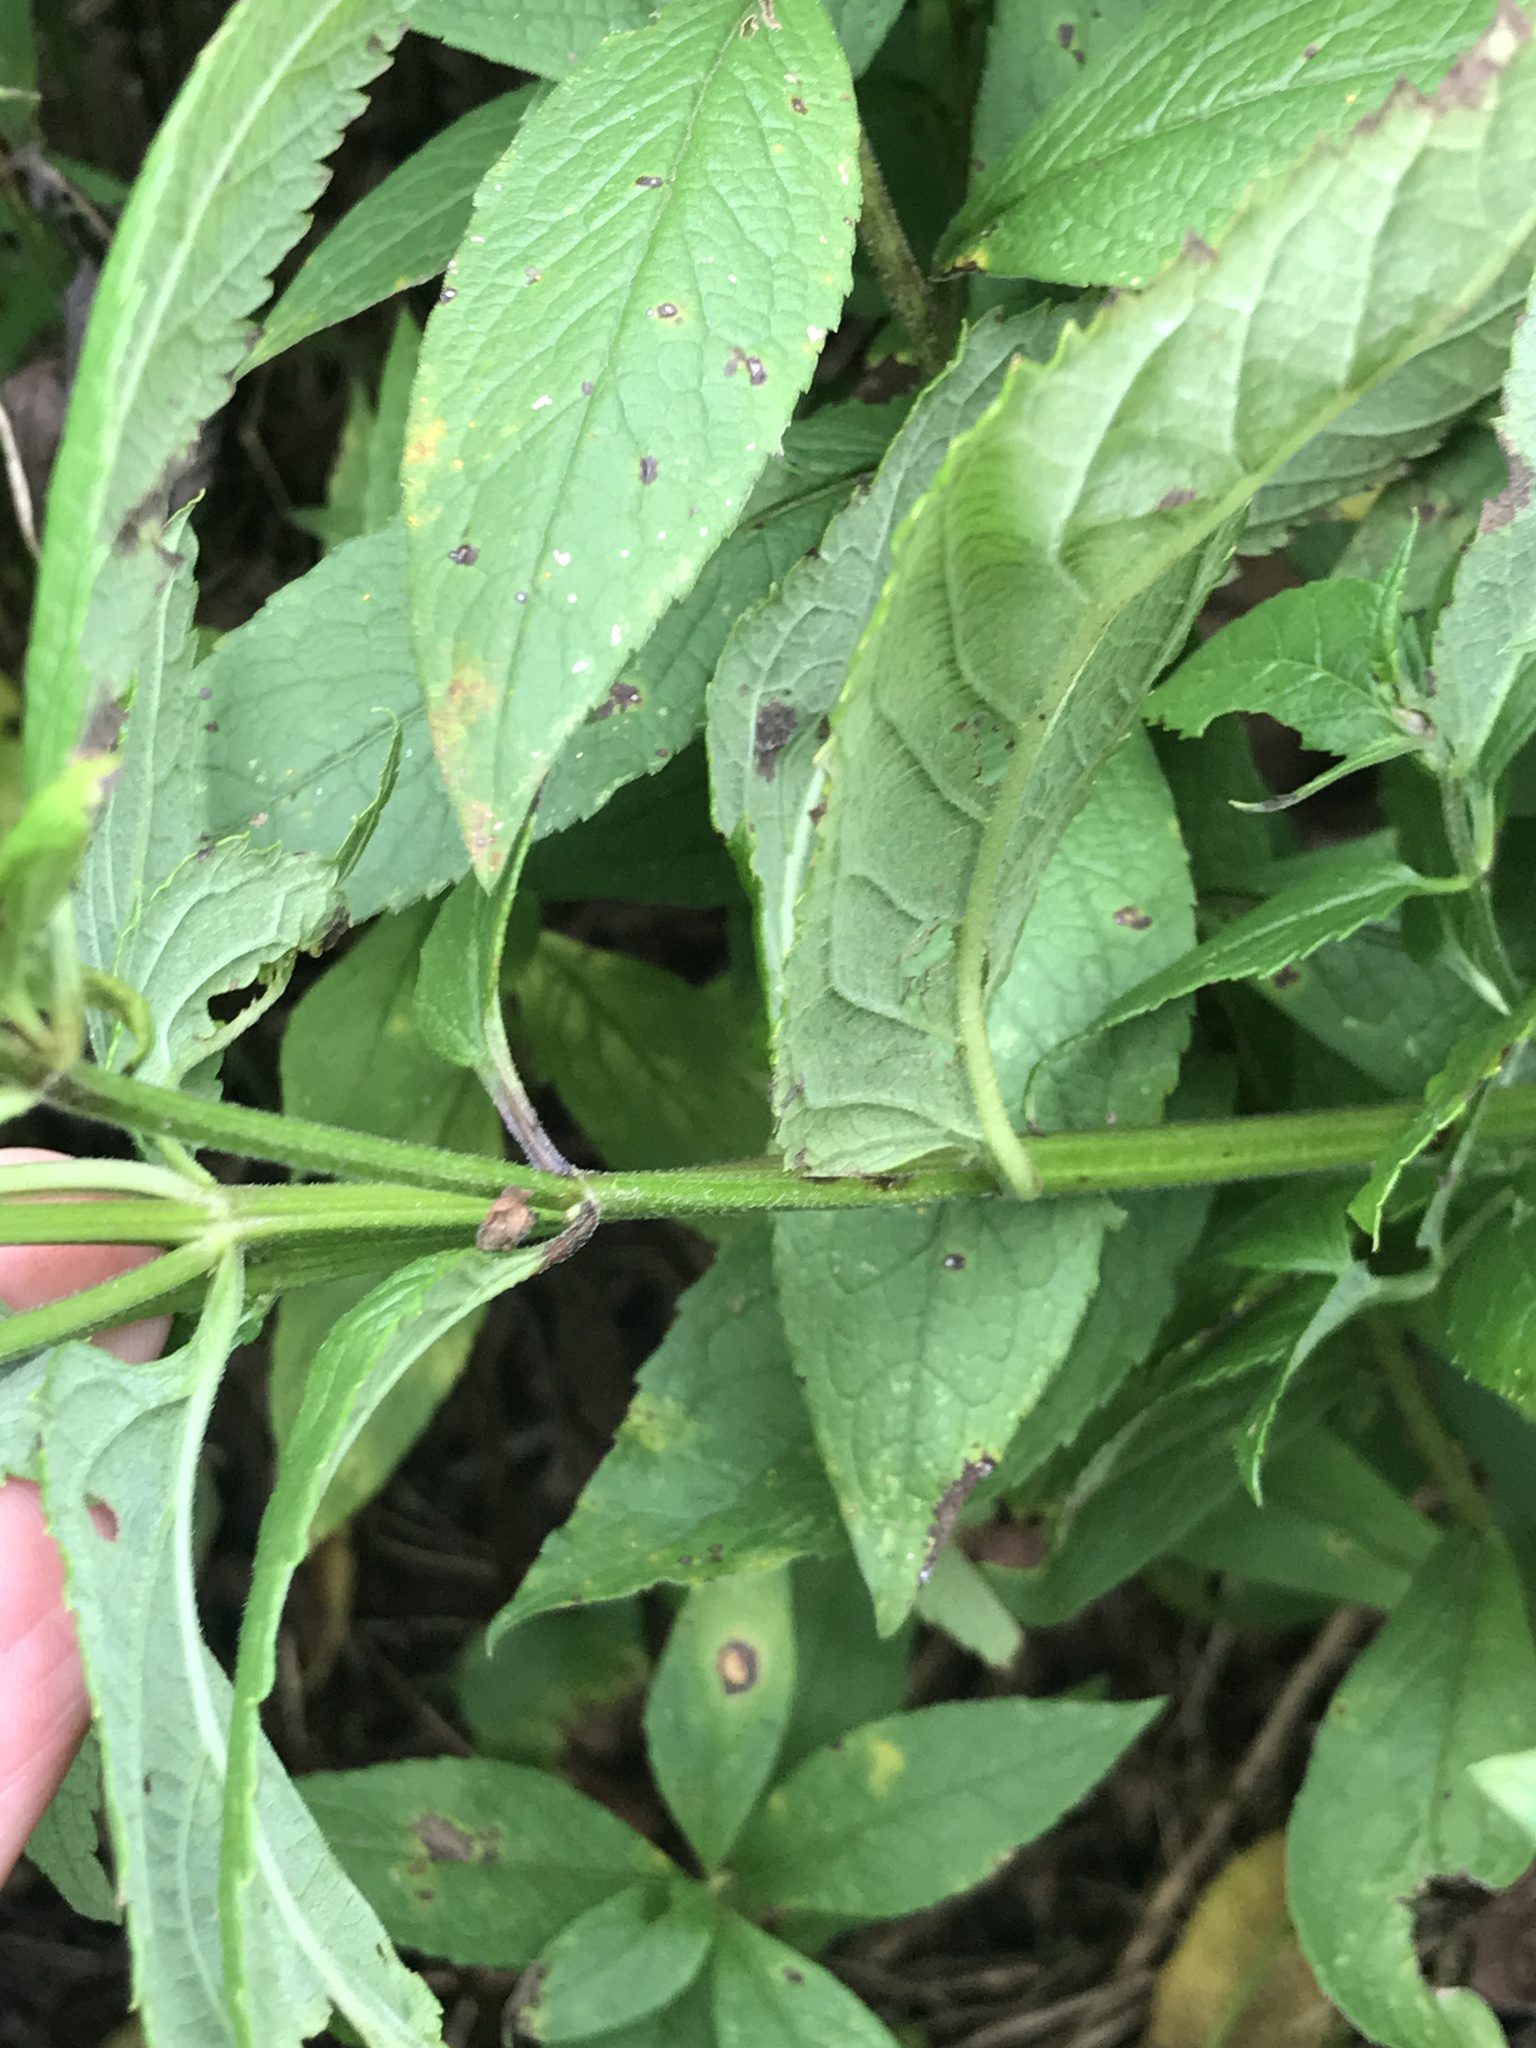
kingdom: Plantae
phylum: Tracheophyta
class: Magnoliopsida
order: Lamiales
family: Lamiaceae
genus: Teucrium
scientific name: Teucrium canadense
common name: American germander
